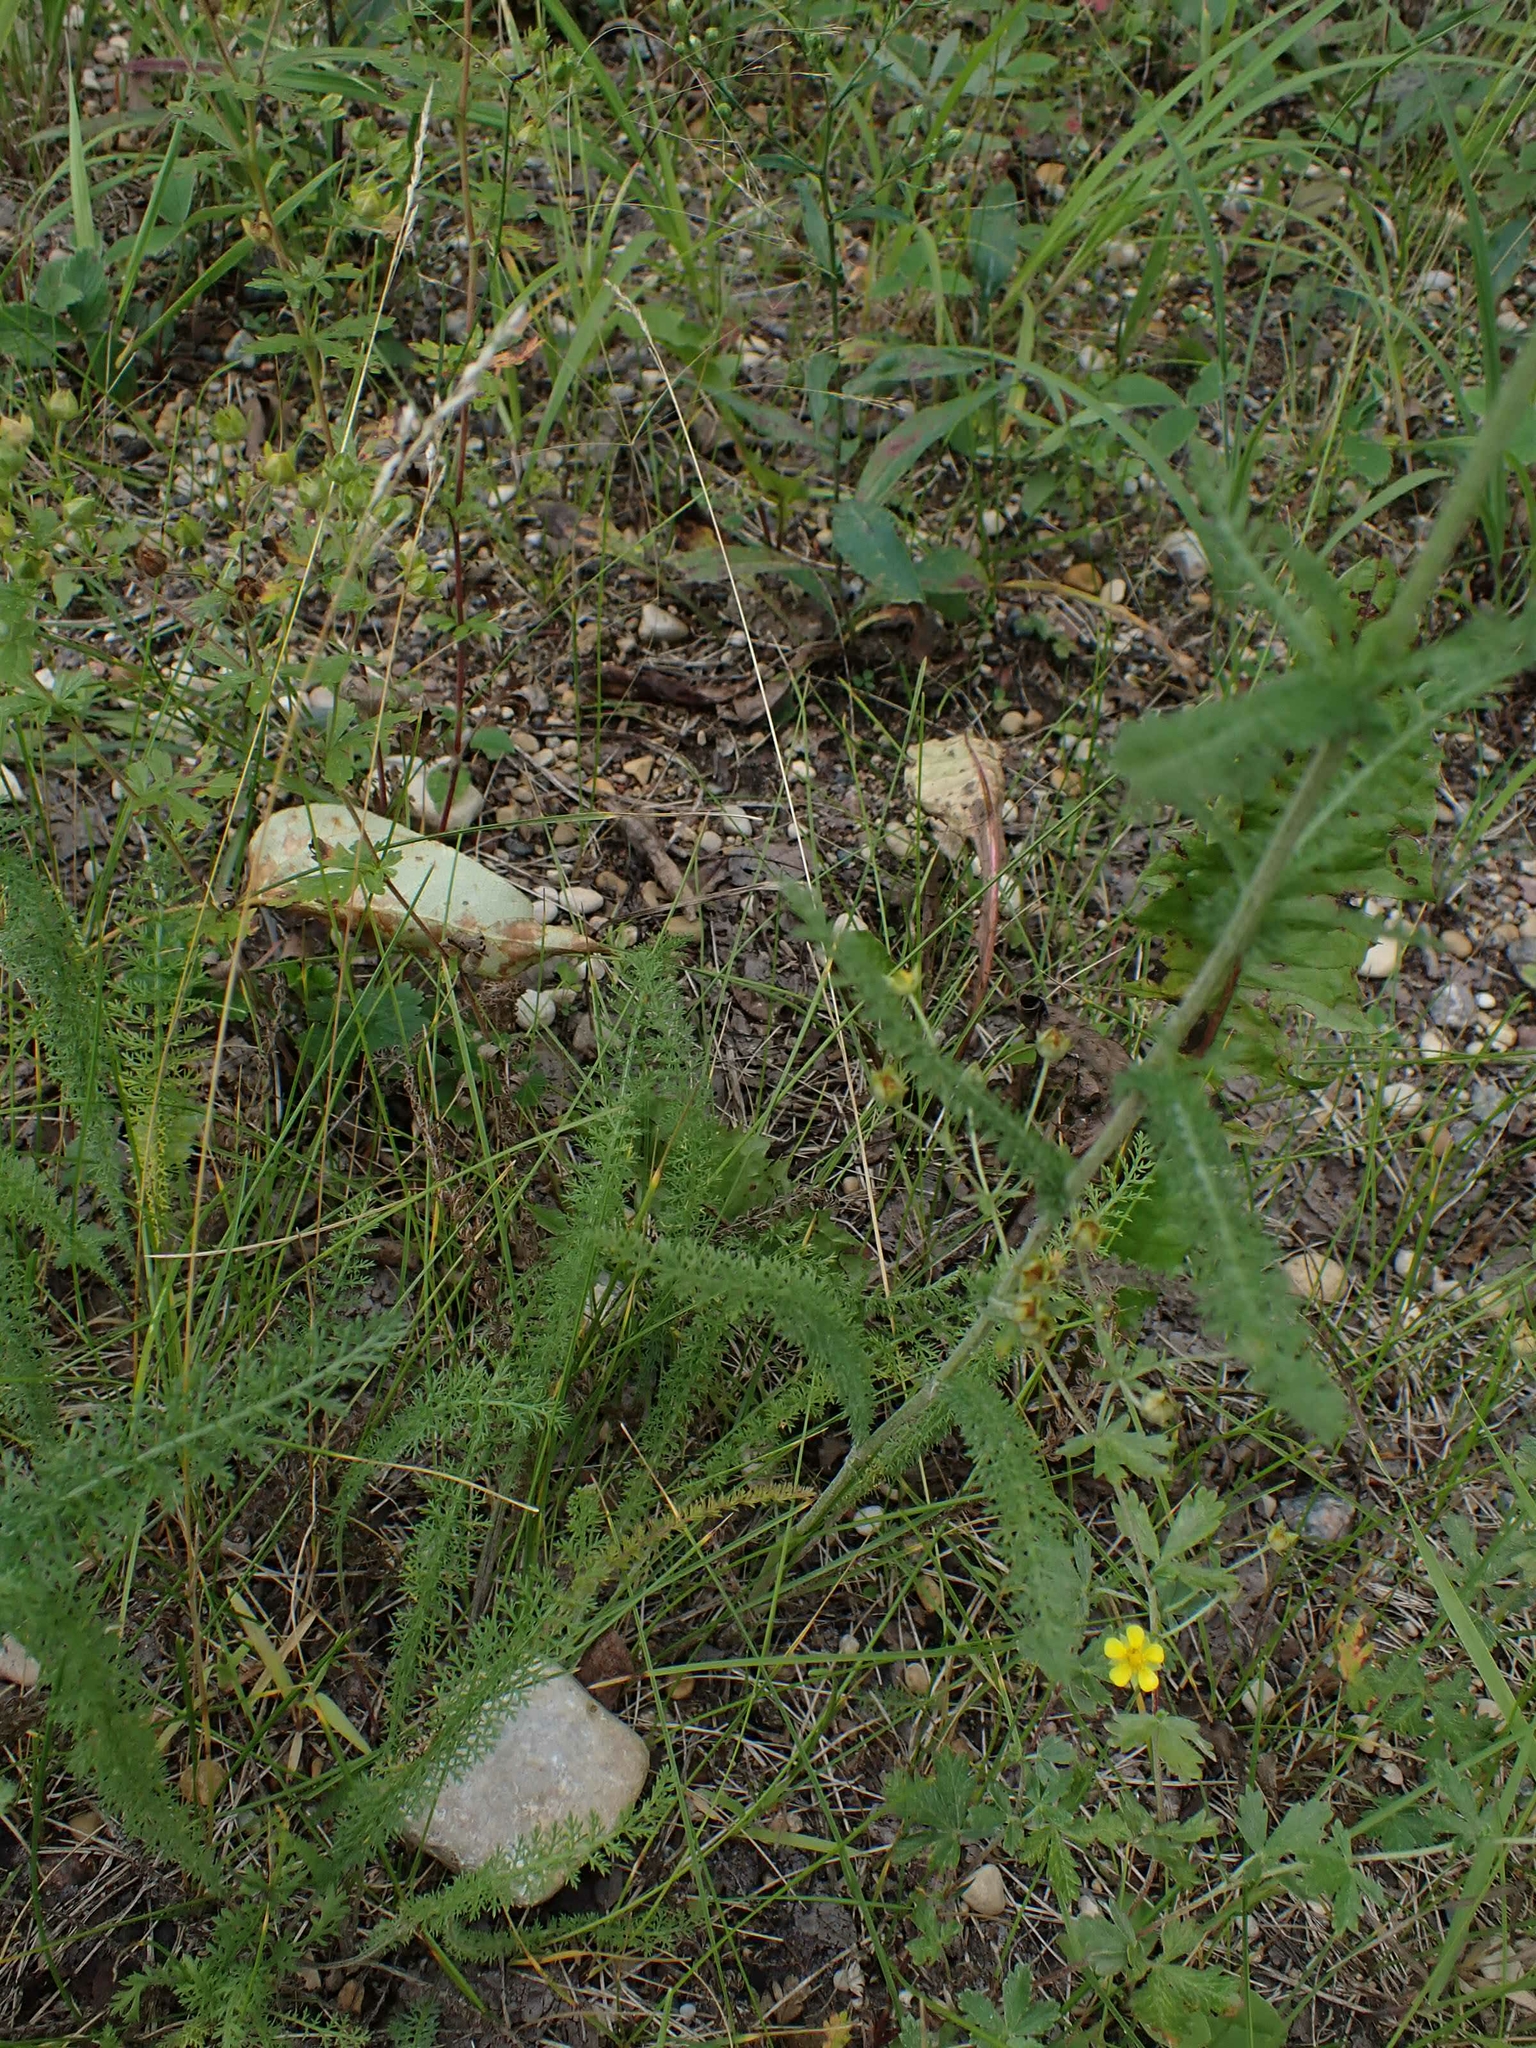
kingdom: Plantae
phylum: Tracheophyta
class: Magnoliopsida
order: Asterales
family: Asteraceae
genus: Achillea
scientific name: Achillea millefolium
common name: Yarrow
